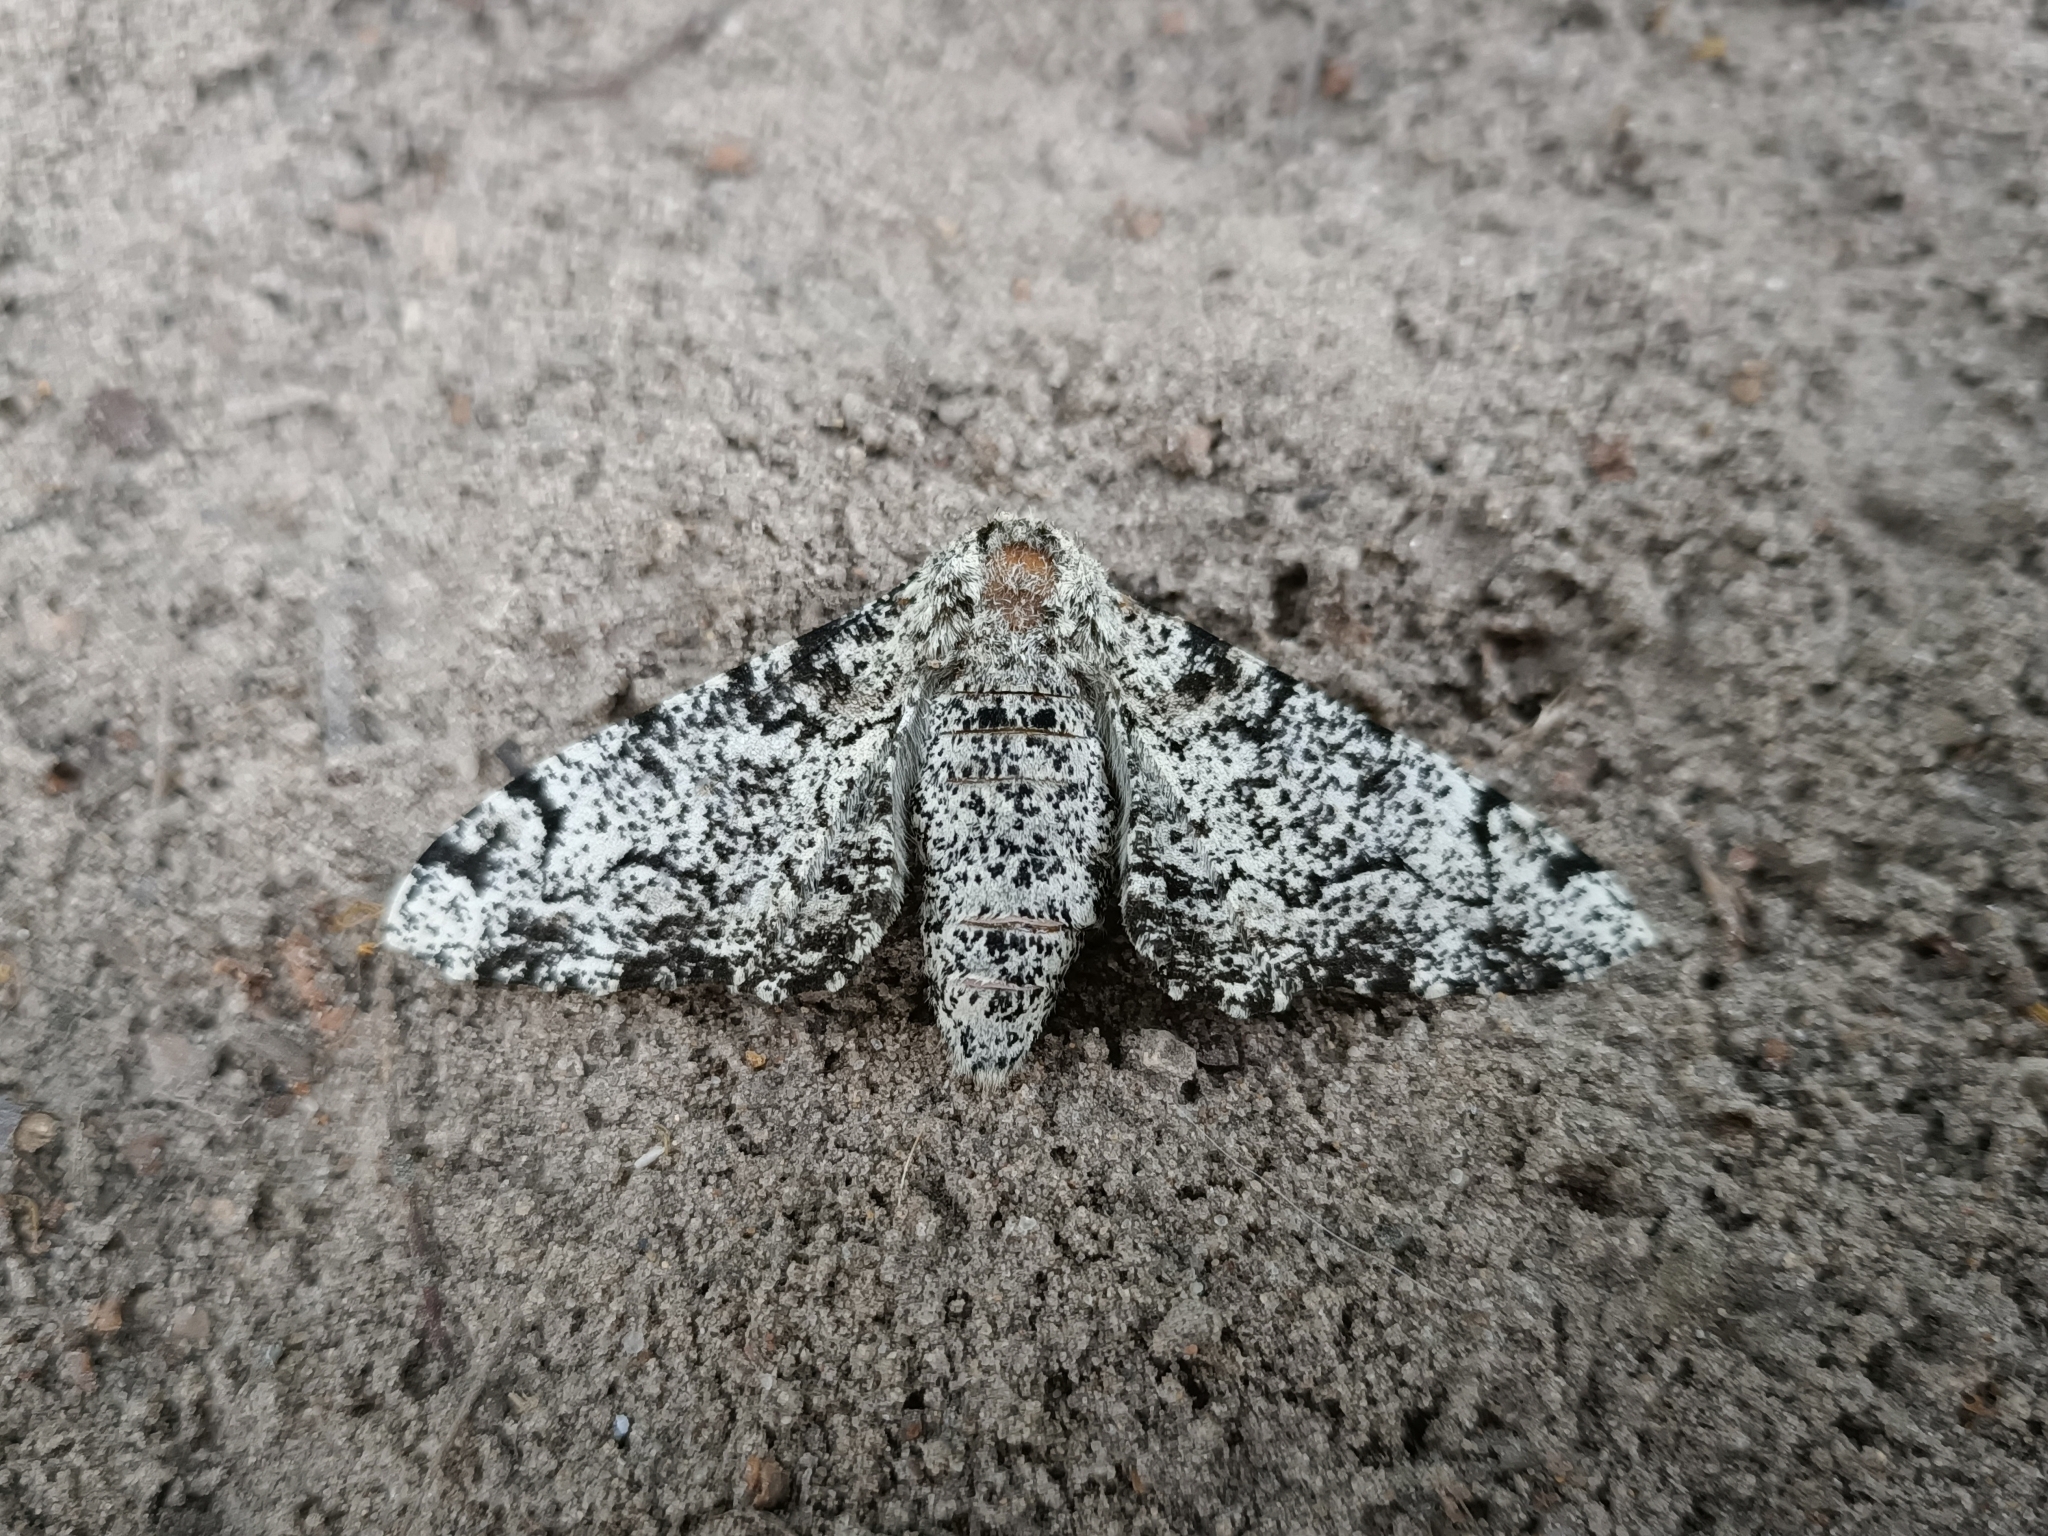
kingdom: Animalia
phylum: Arthropoda
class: Insecta
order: Lepidoptera
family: Geometridae
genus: Biston
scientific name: Biston betularia
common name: Peppered moth
